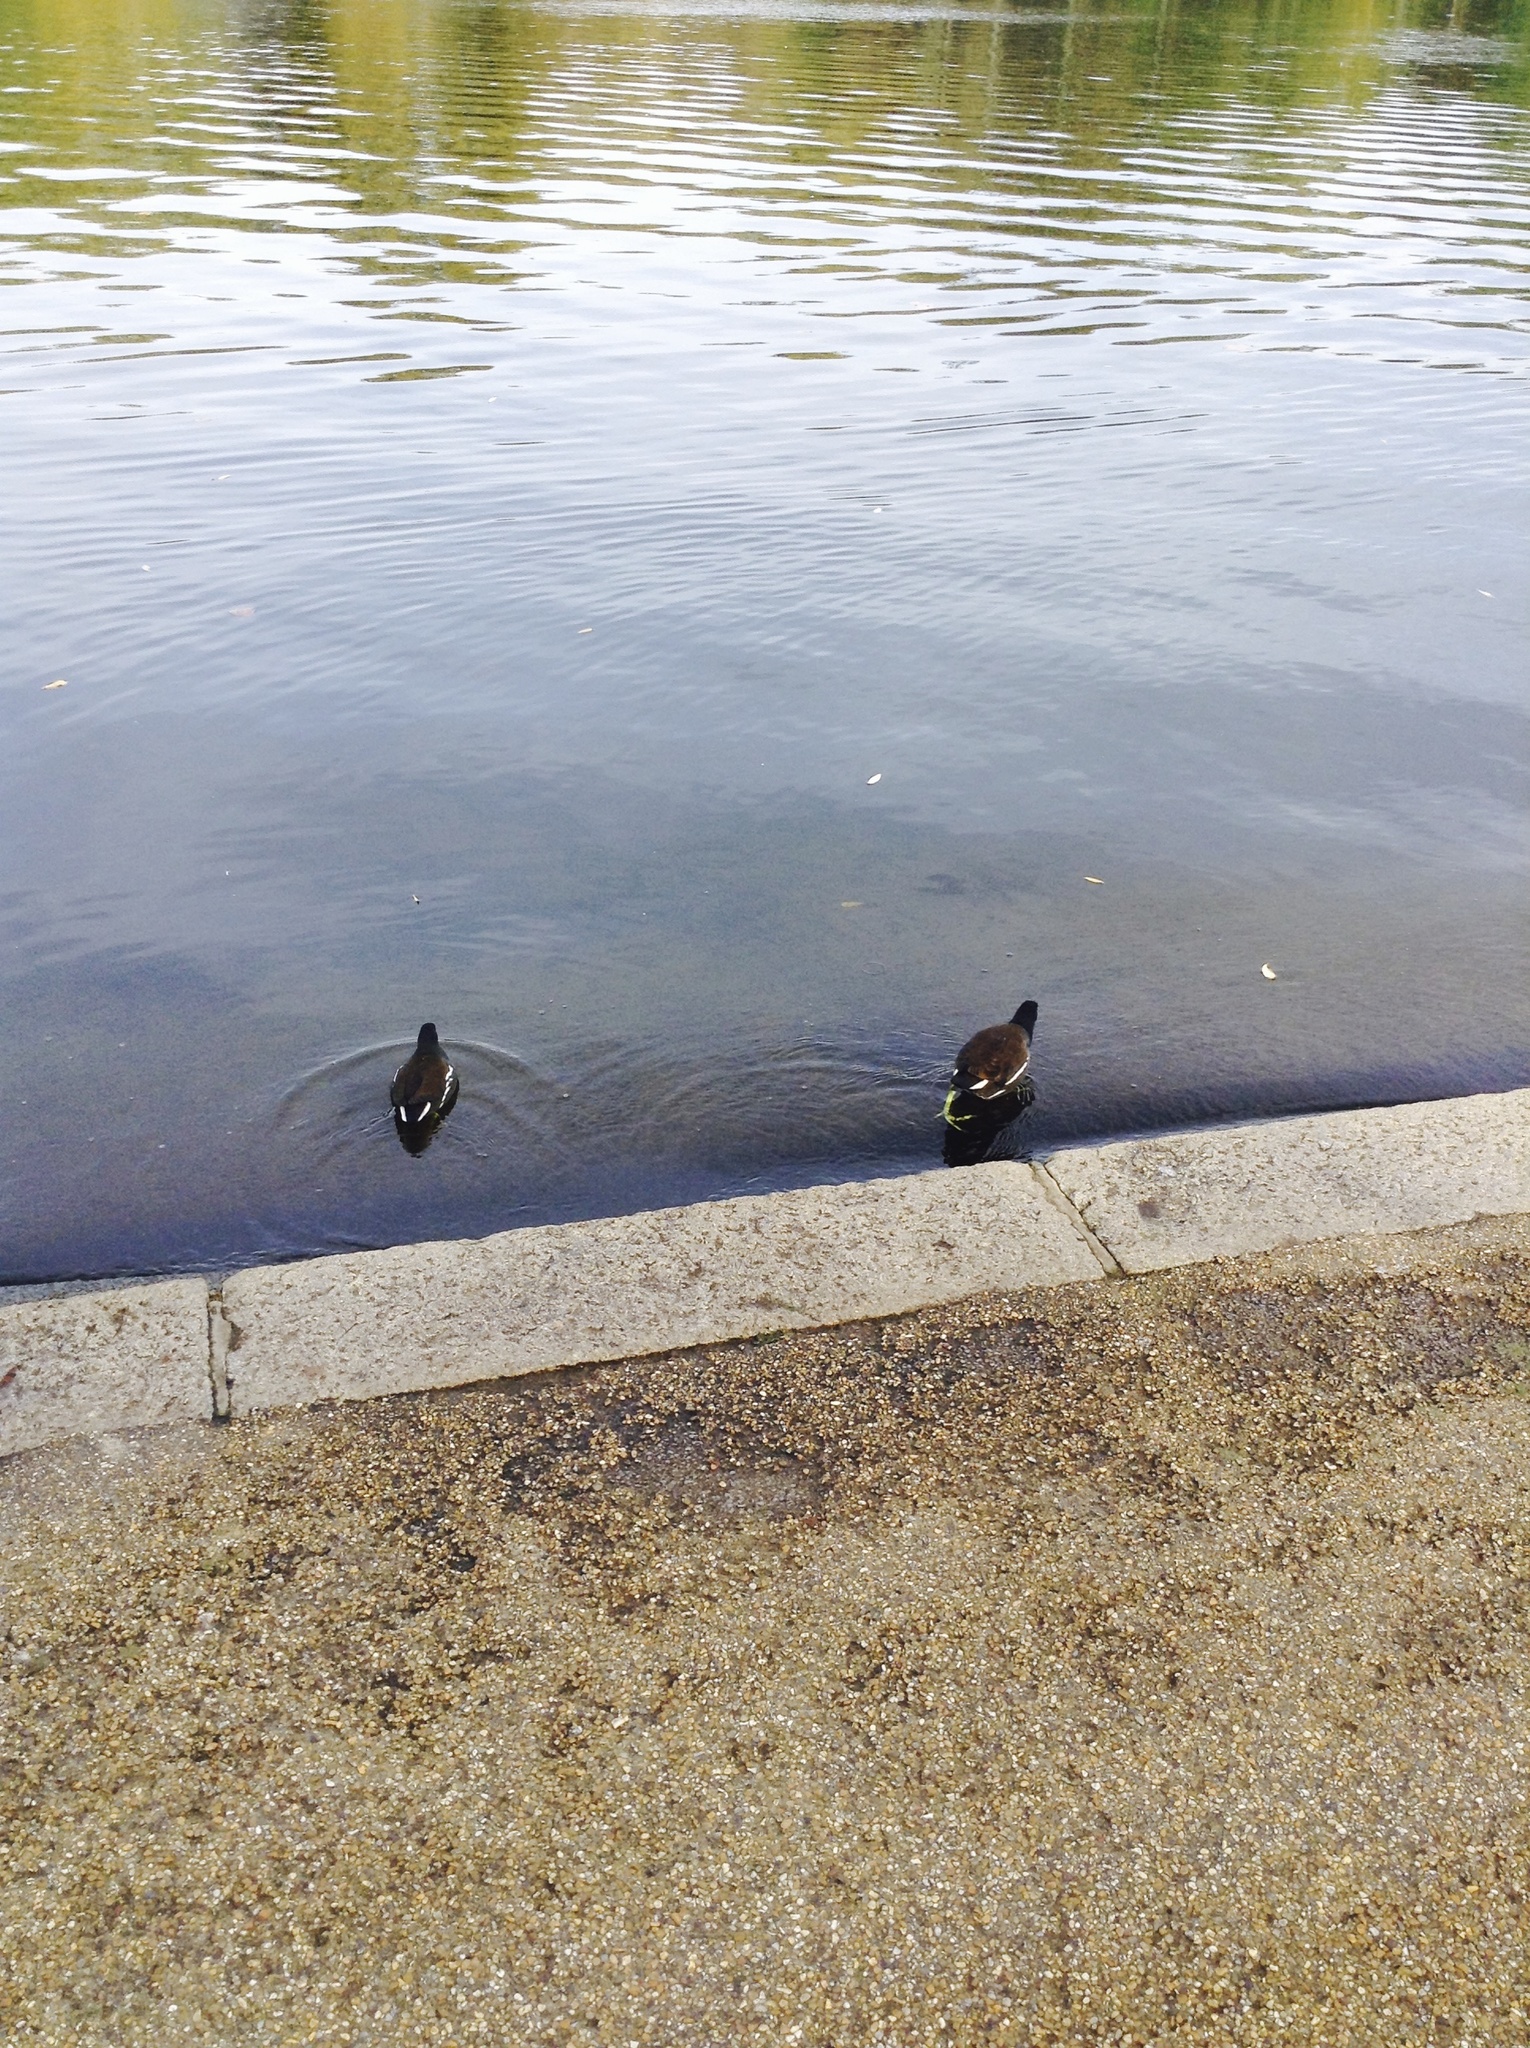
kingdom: Animalia
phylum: Chordata
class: Aves
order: Gruiformes
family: Rallidae
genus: Gallinula
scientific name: Gallinula chloropus
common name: Common moorhen
